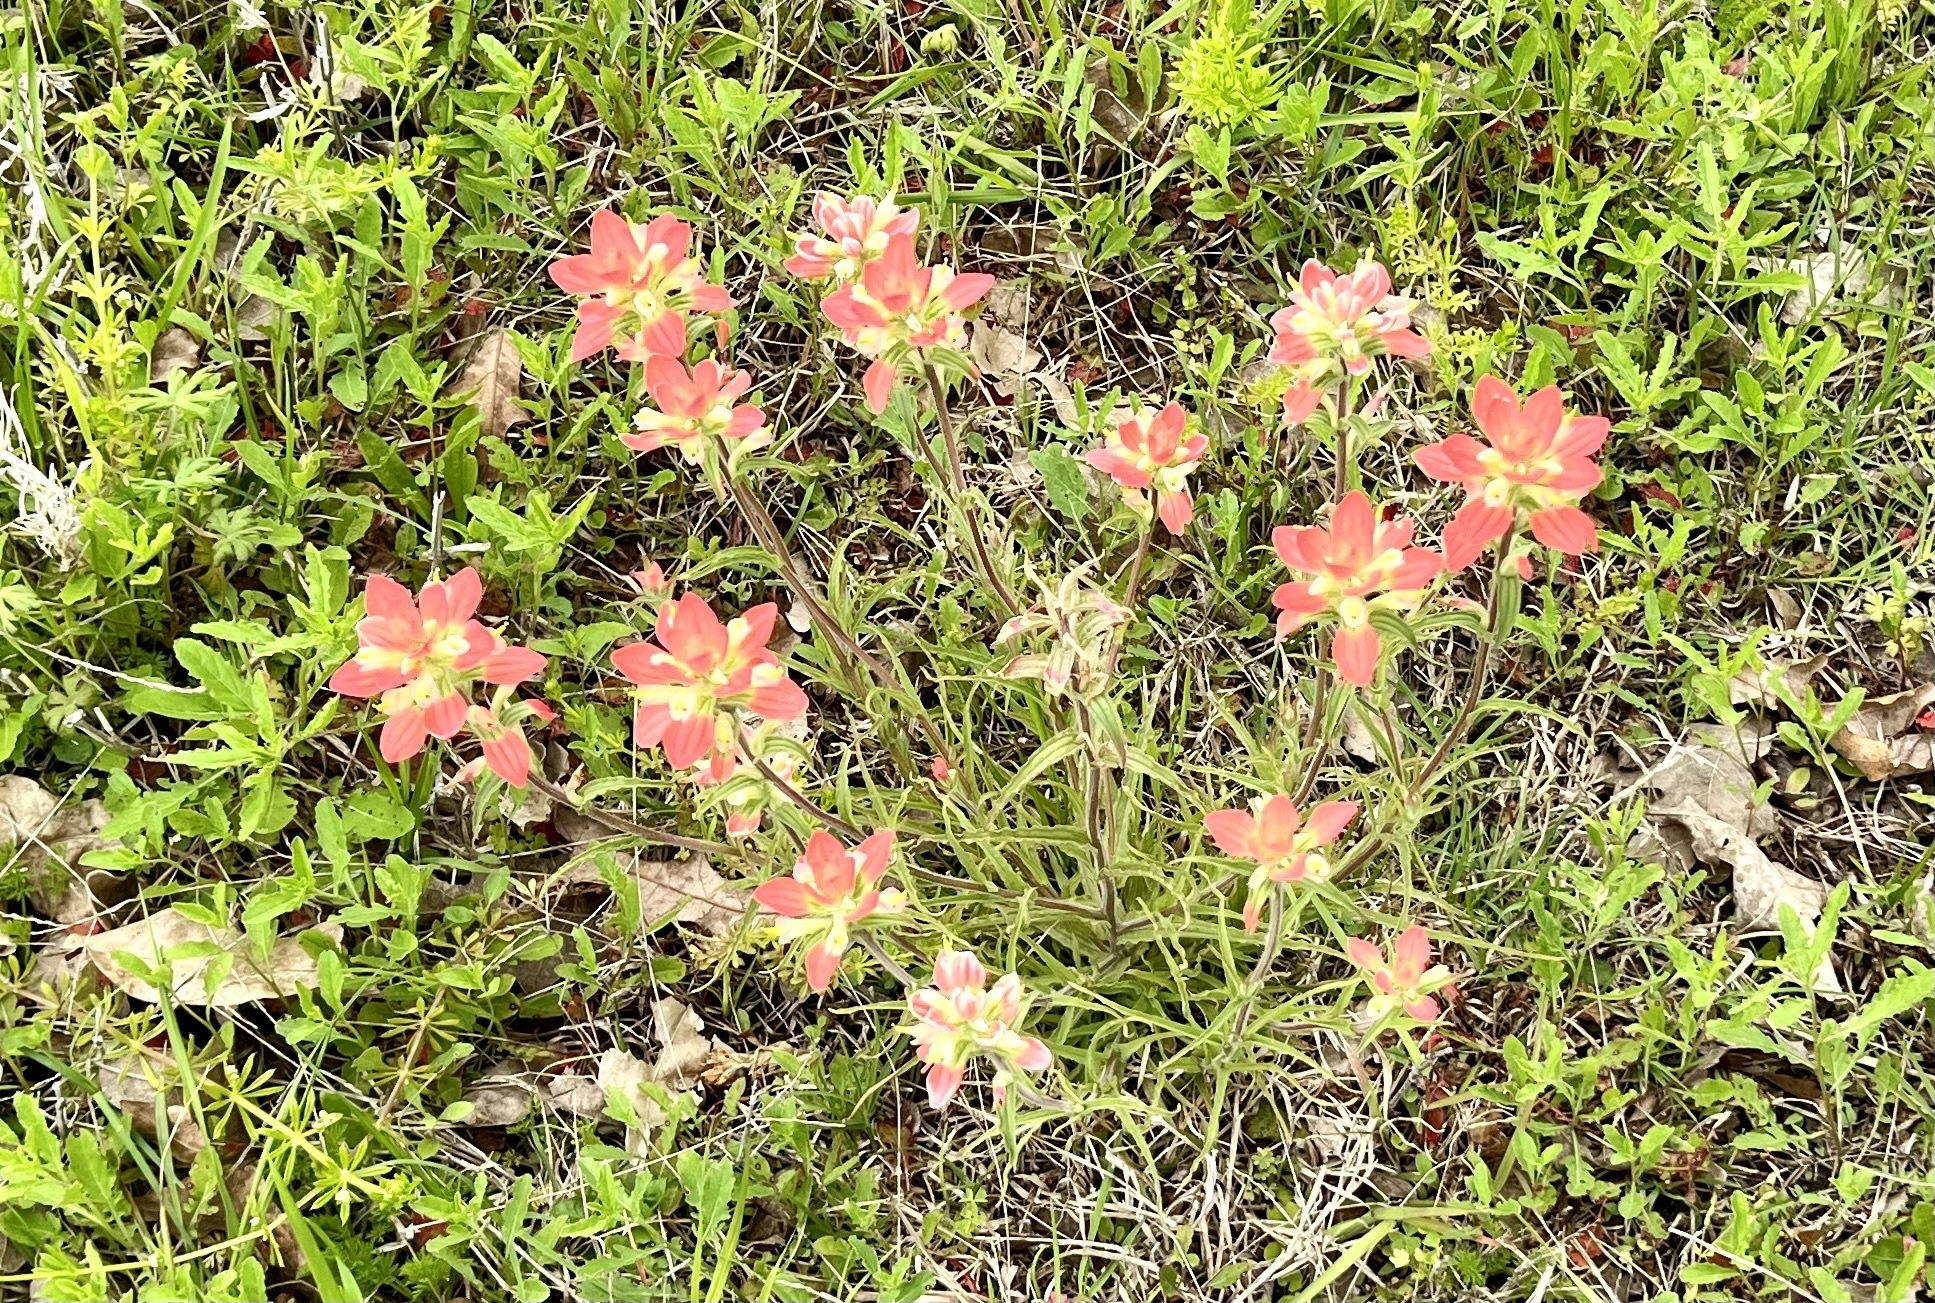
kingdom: Plantae
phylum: Tracheophyta
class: Magnoliopsida
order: Lamiales
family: Orobanchaceae
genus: Castilleja
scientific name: Castilleja indivisa
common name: Texas paintbrush
